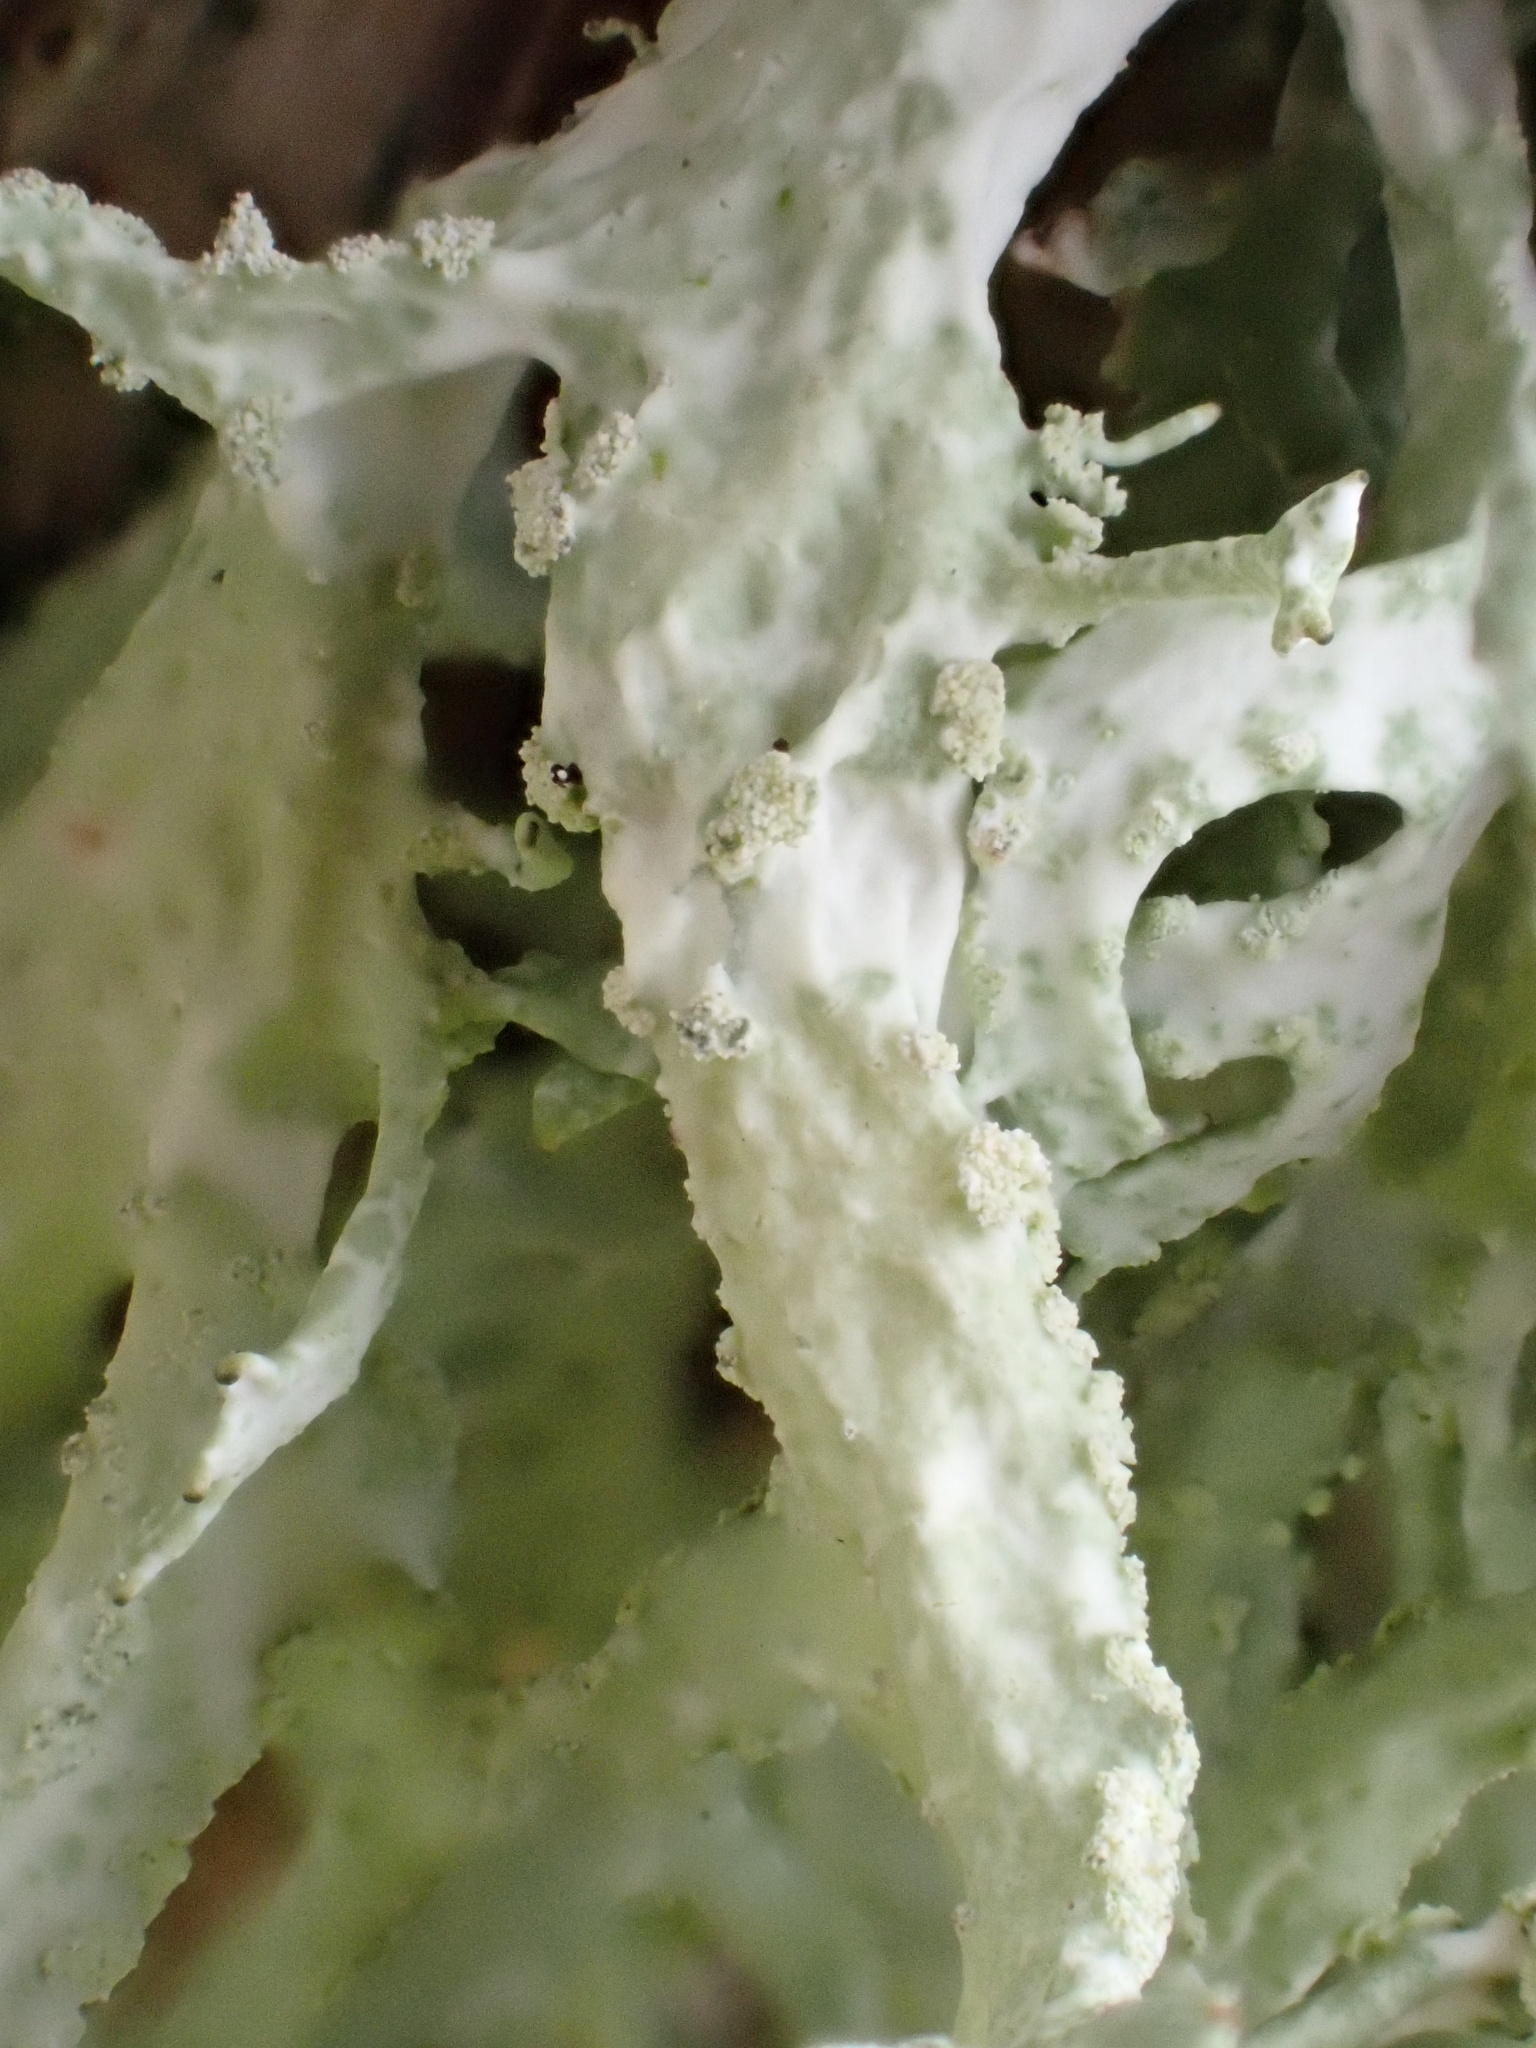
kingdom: Fungi
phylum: Ascomycota
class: Lecanoromycetes
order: Lecanorales
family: Parmeliaceae
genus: Evernia
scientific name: Evernia prunastri
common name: Oak moss
